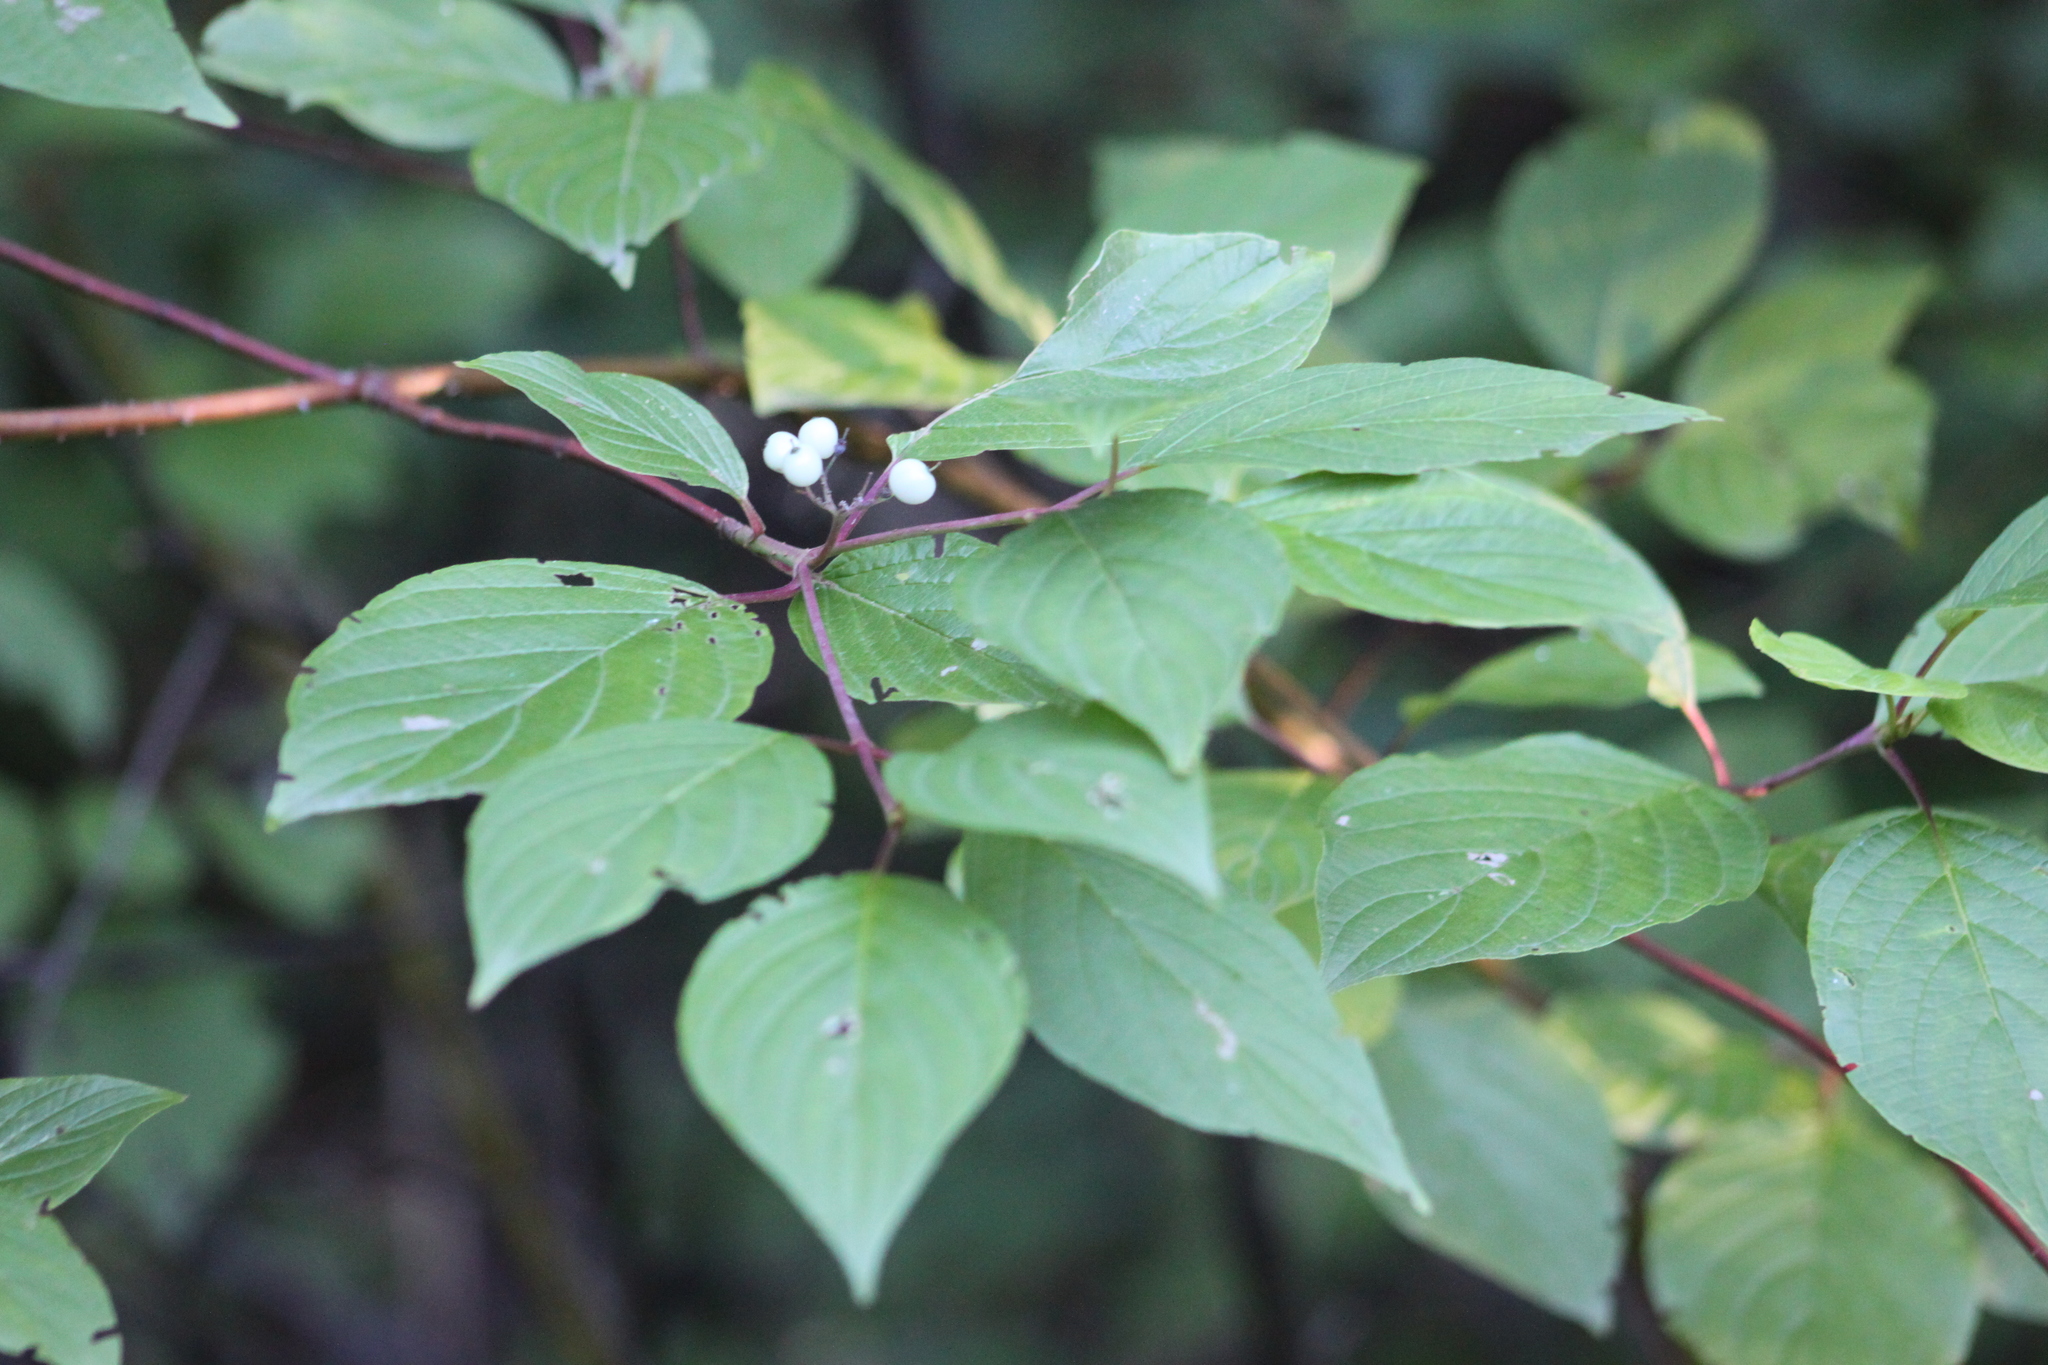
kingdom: Plantae
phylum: Tracheophyta
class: Magnoliopsida
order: Cornales
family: Cornaceae
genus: Cornus
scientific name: Cornus sericea
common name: Red-osier dogwood
